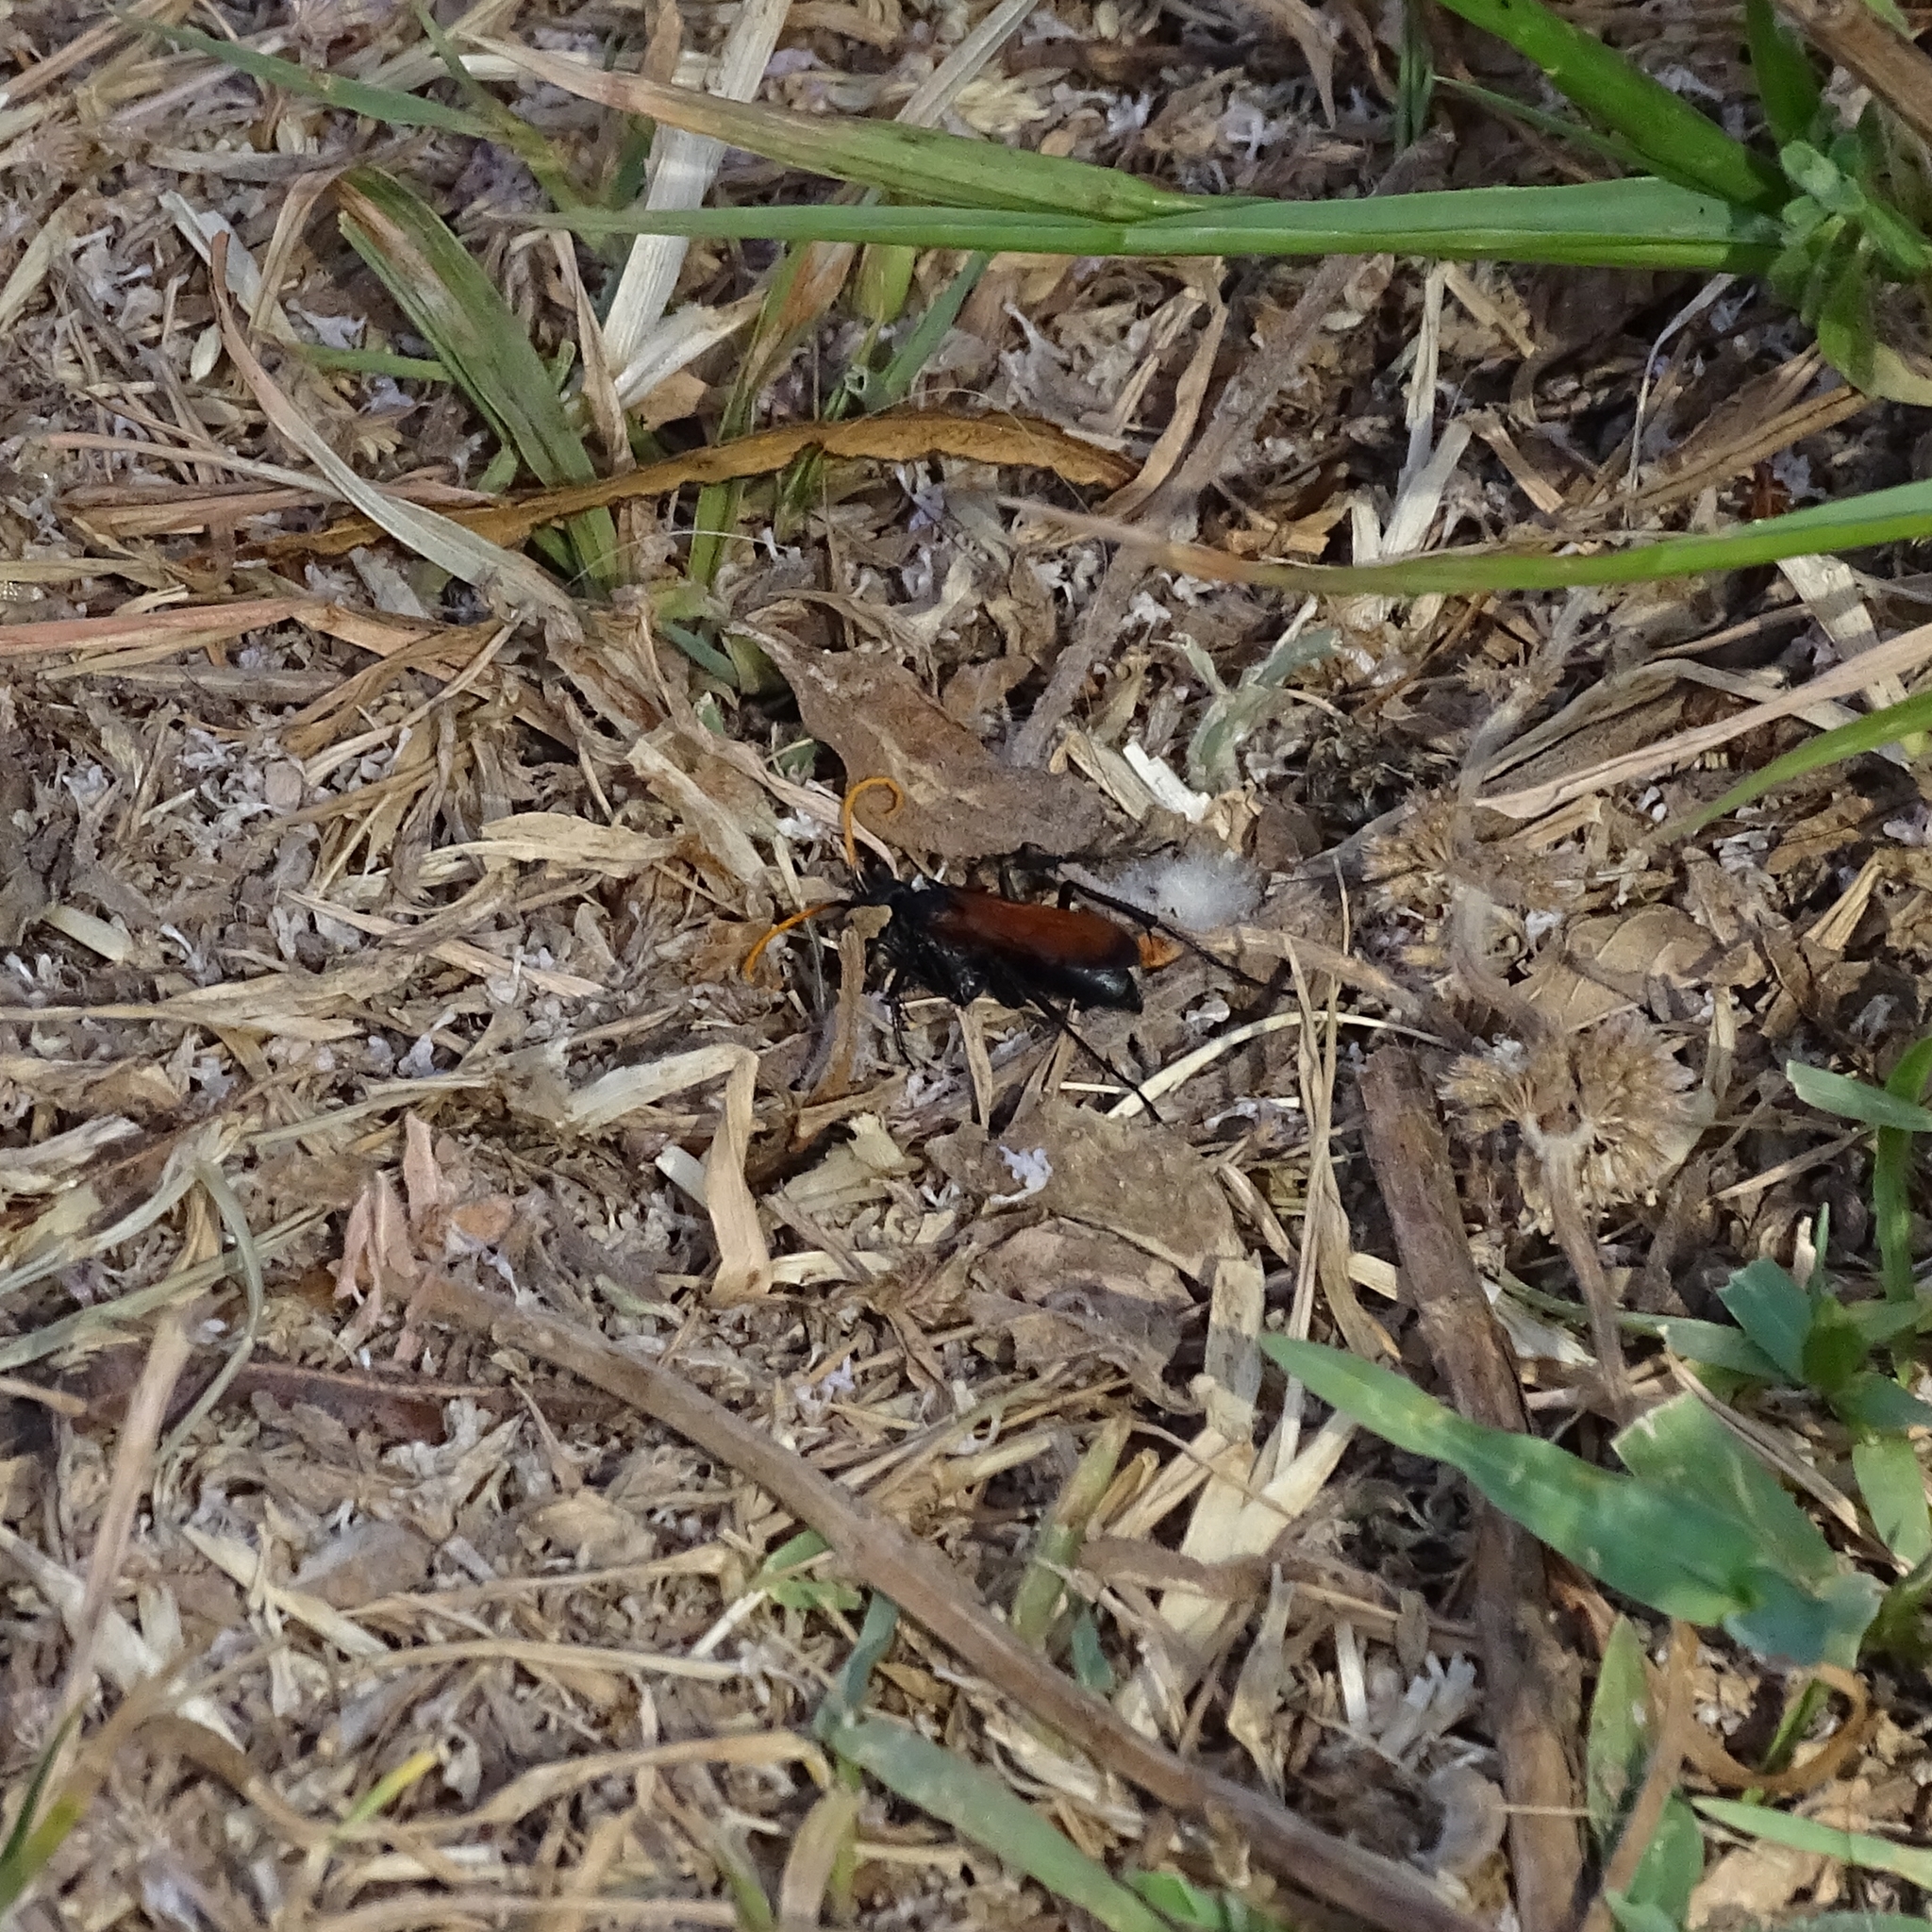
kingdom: Animalia
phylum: Arthropoda
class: Insecta
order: Hymenoptera
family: Pompilidae
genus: Entypus
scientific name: Entypus unifasciatus
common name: Eastern tawny-horned spider wasp
